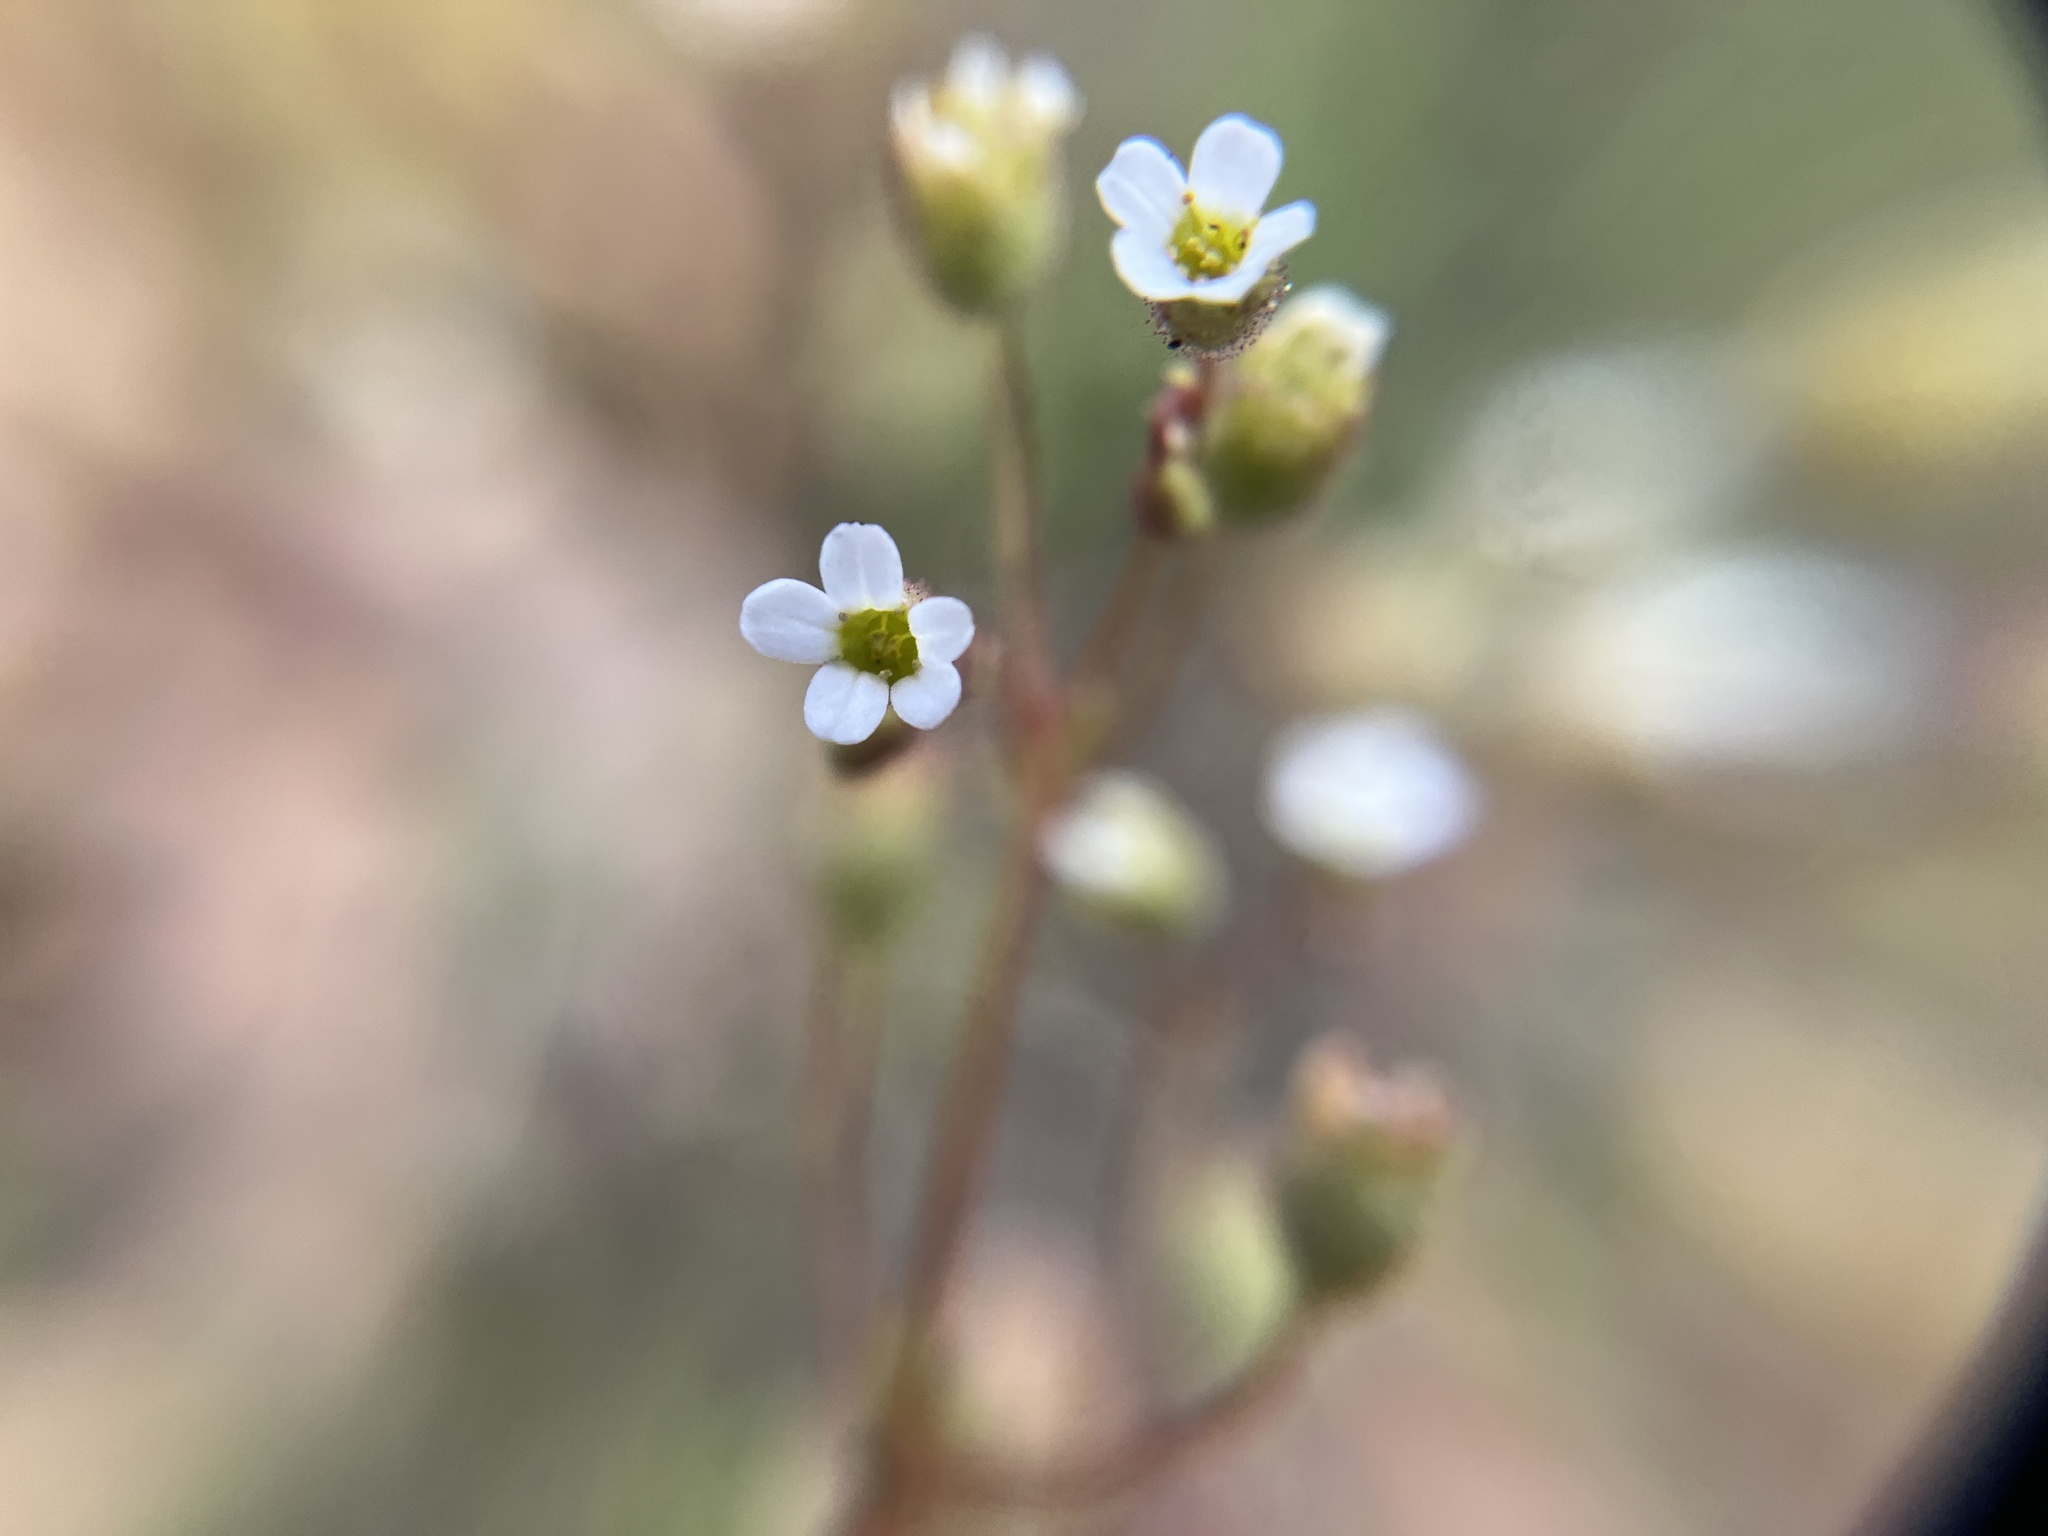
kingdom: Plantae
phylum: Tracheophyta
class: Magnoliopsida
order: Saxifragales
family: Saxifragaceae
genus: Saxifraga
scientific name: Saxifraga tridactylites
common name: Rue-leaved saxifrage
